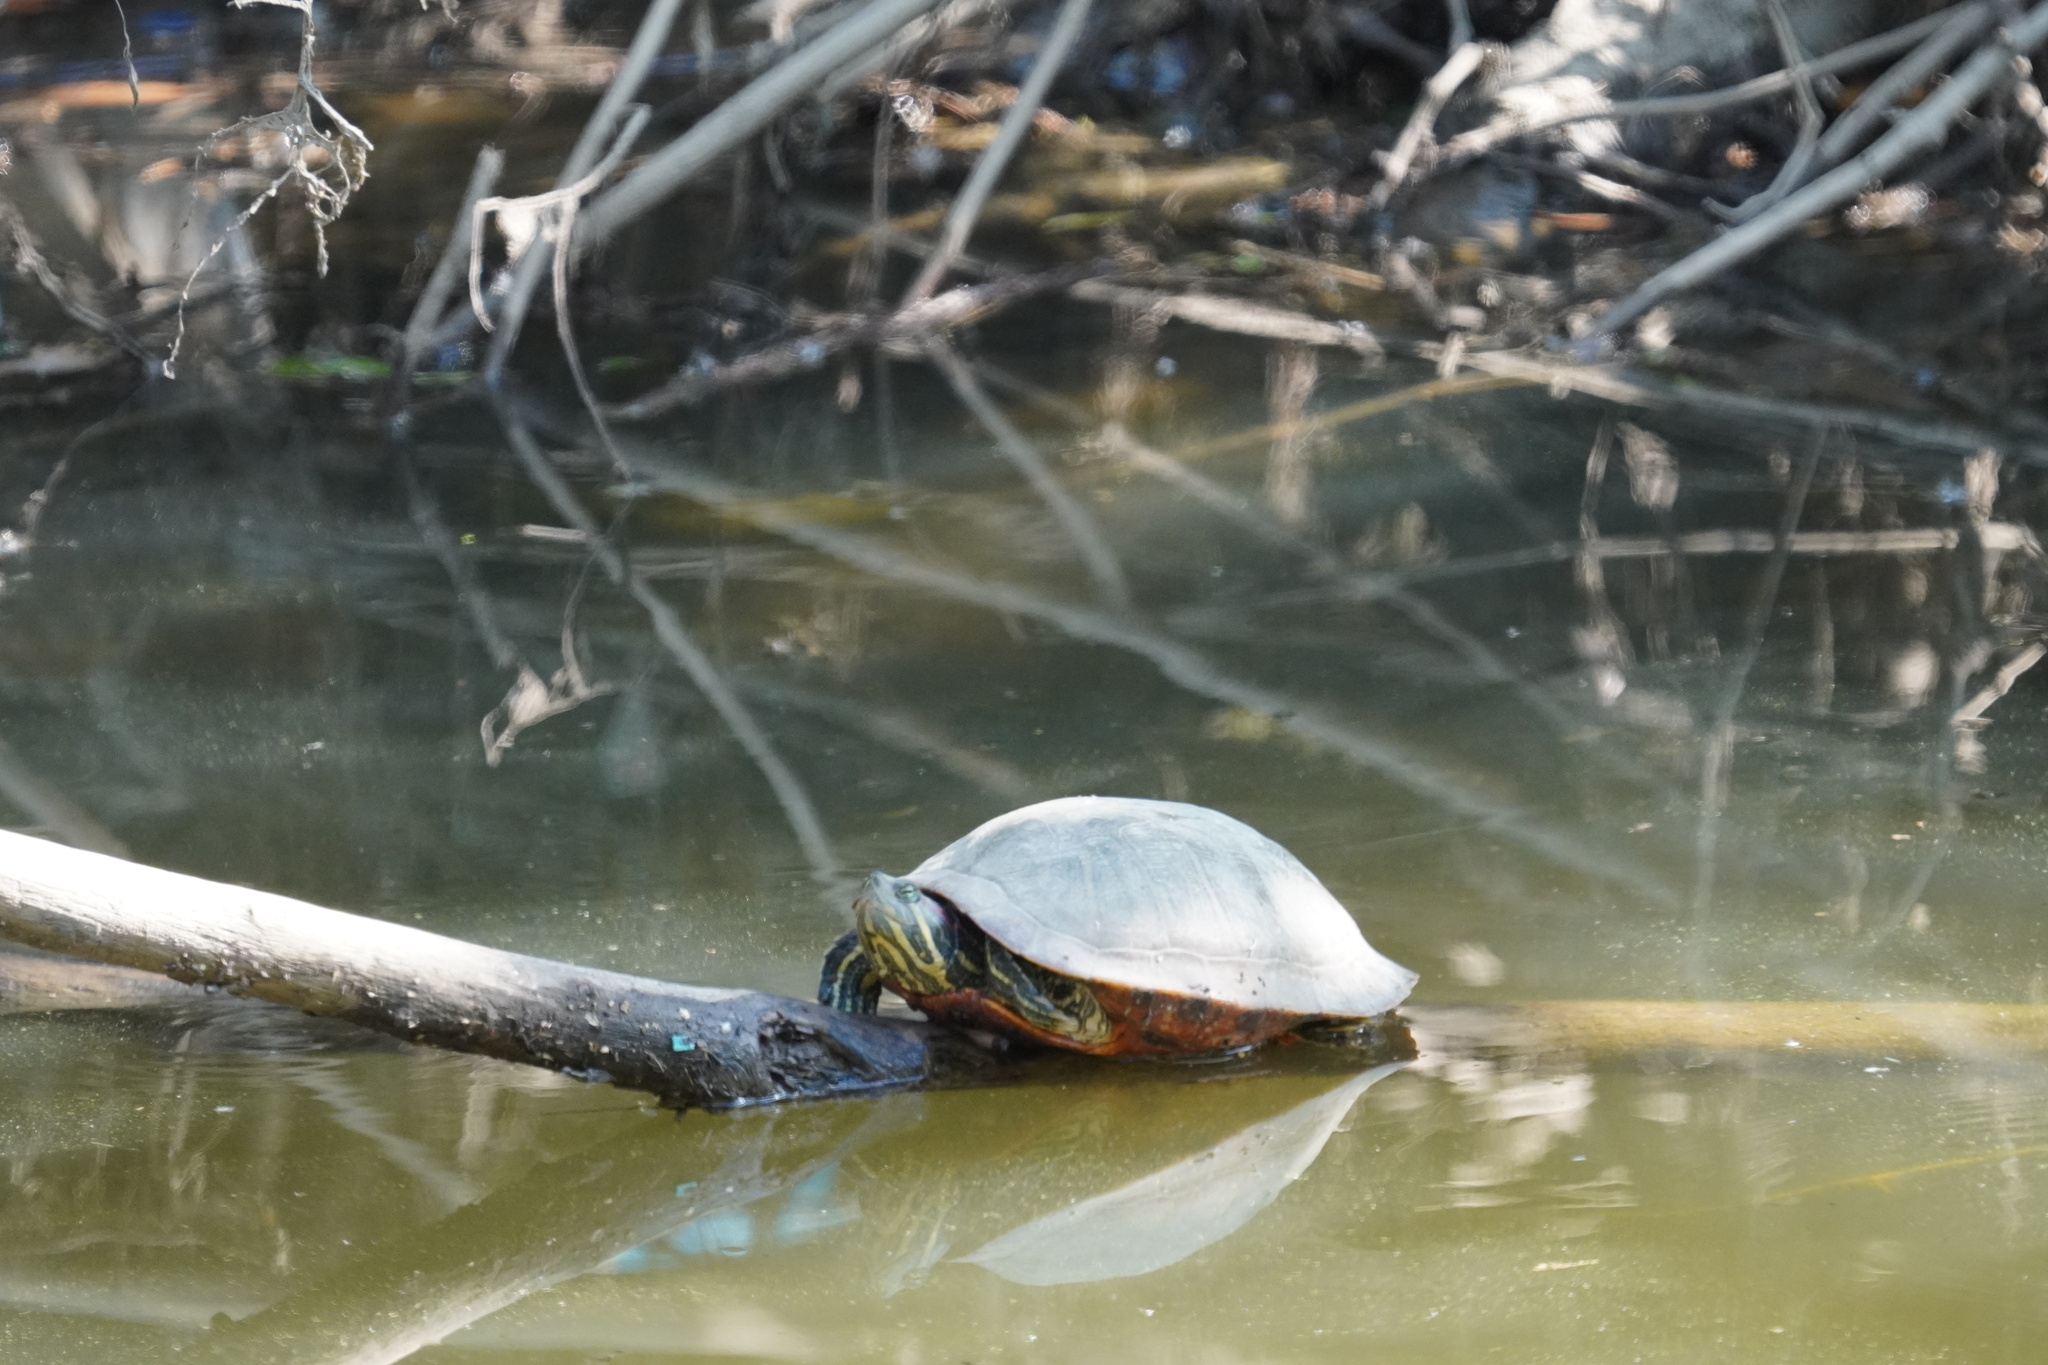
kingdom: Animalia
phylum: Chordata
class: Testudines
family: Emydidae
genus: Trachemys
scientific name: Trachemys scripta
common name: Slider
